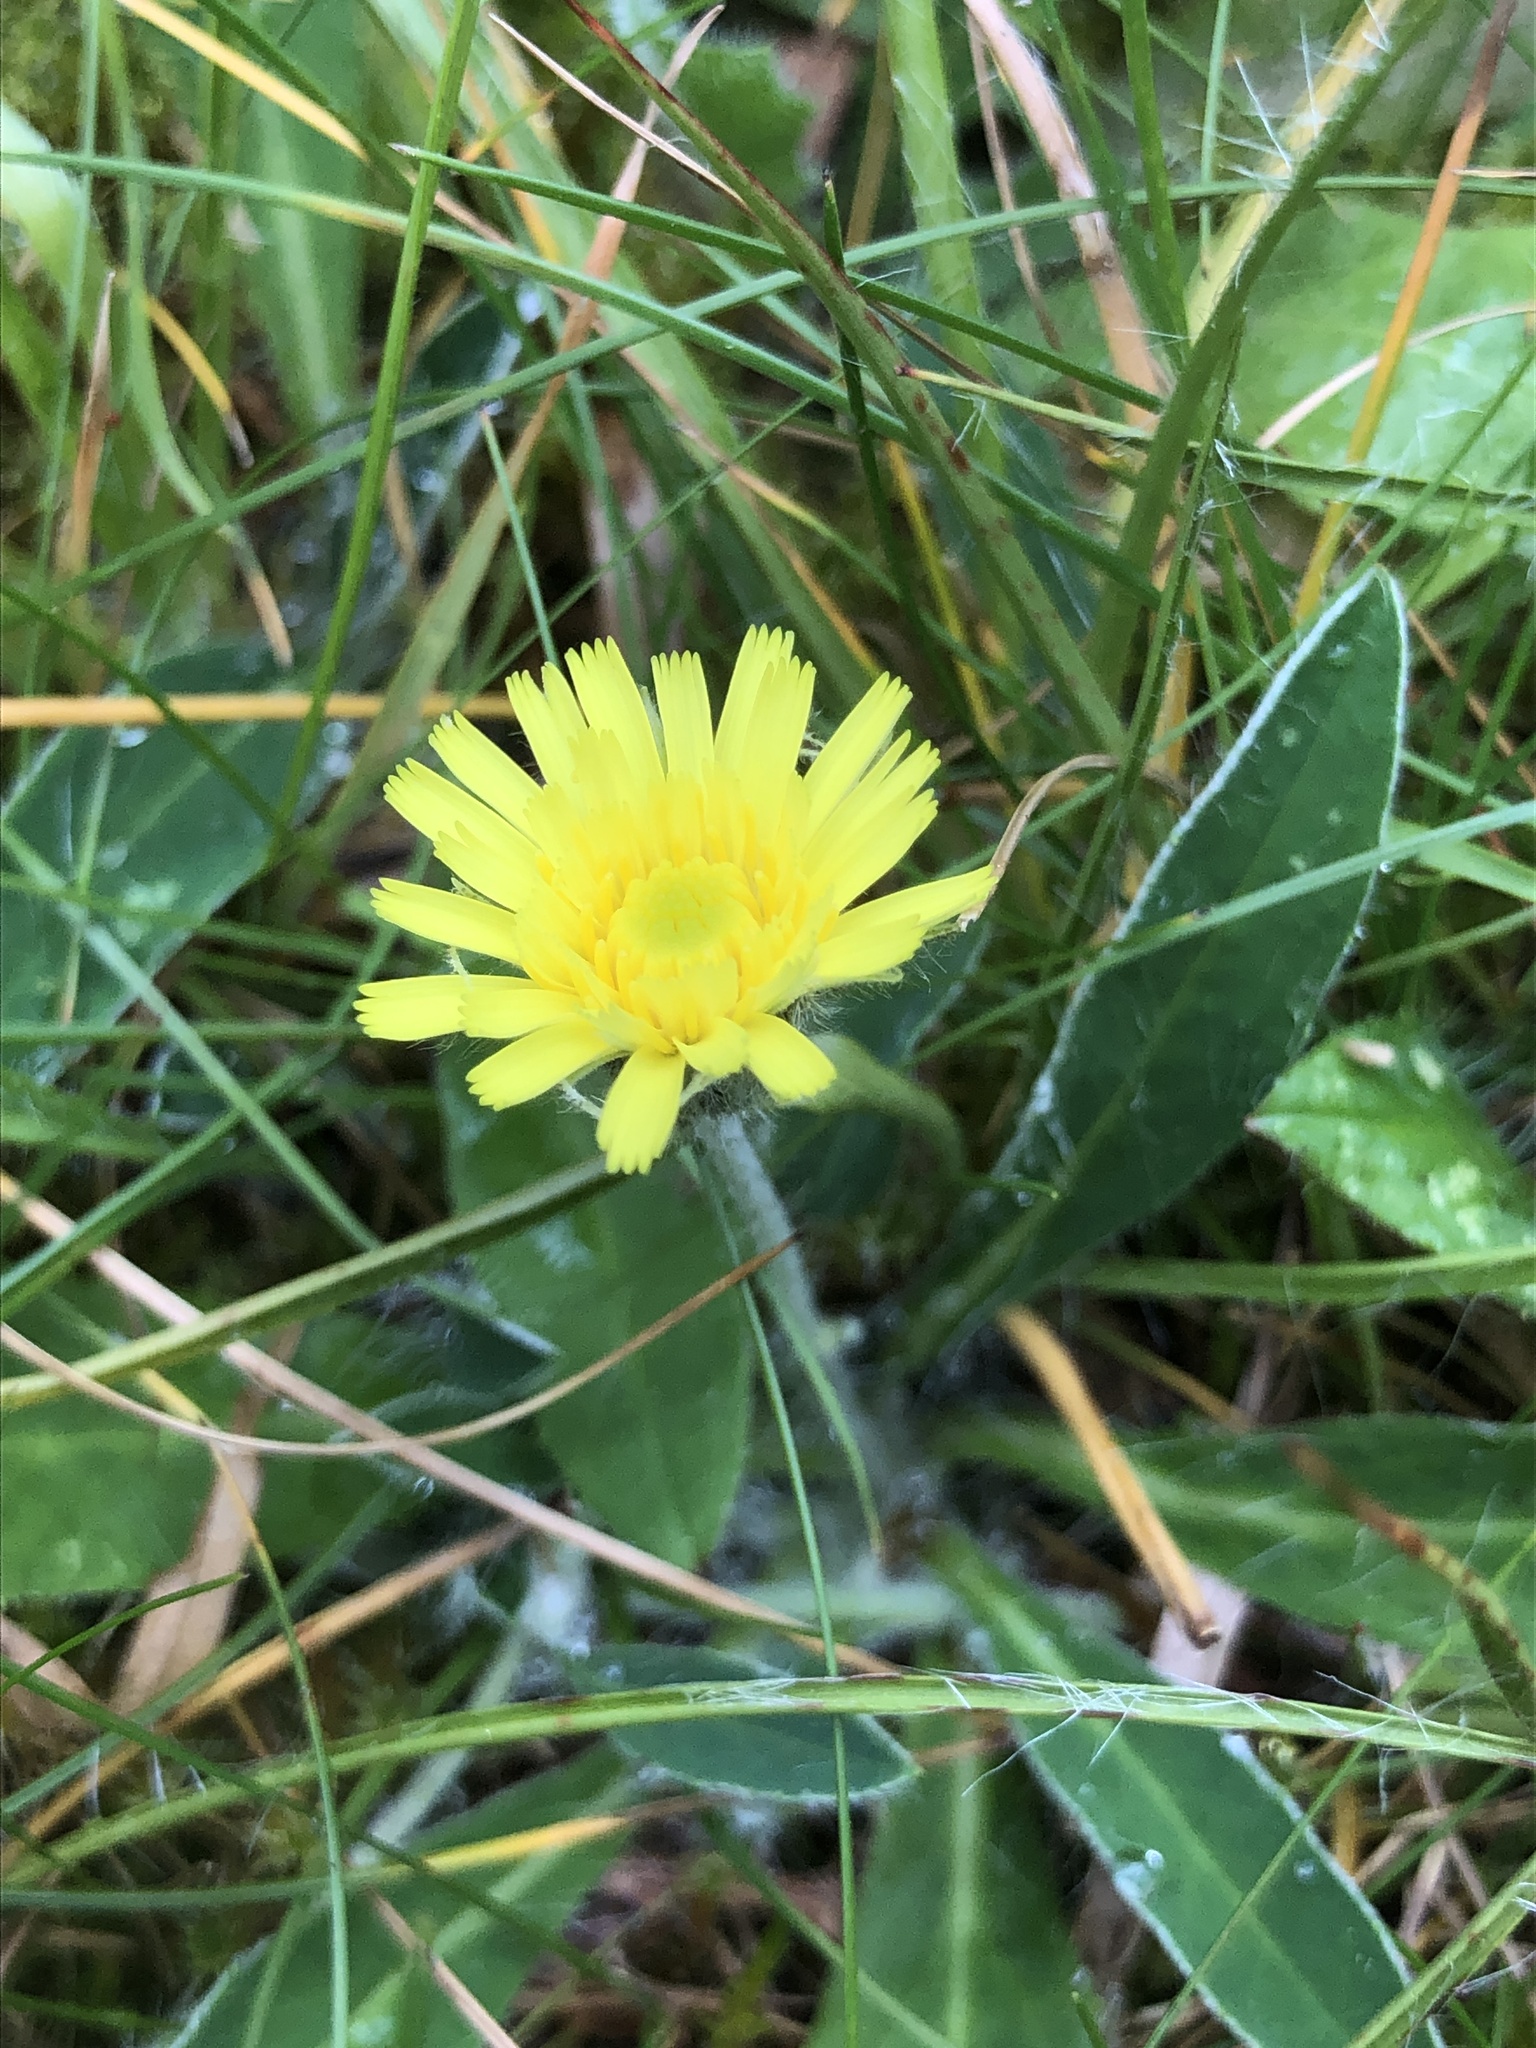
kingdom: Plantae
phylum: Tracheophyta
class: Magnoliopsida
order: Asterales
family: Asteraceae
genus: Pilosella
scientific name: Pilosella officinarum
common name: Mouse-ear hawkweed
